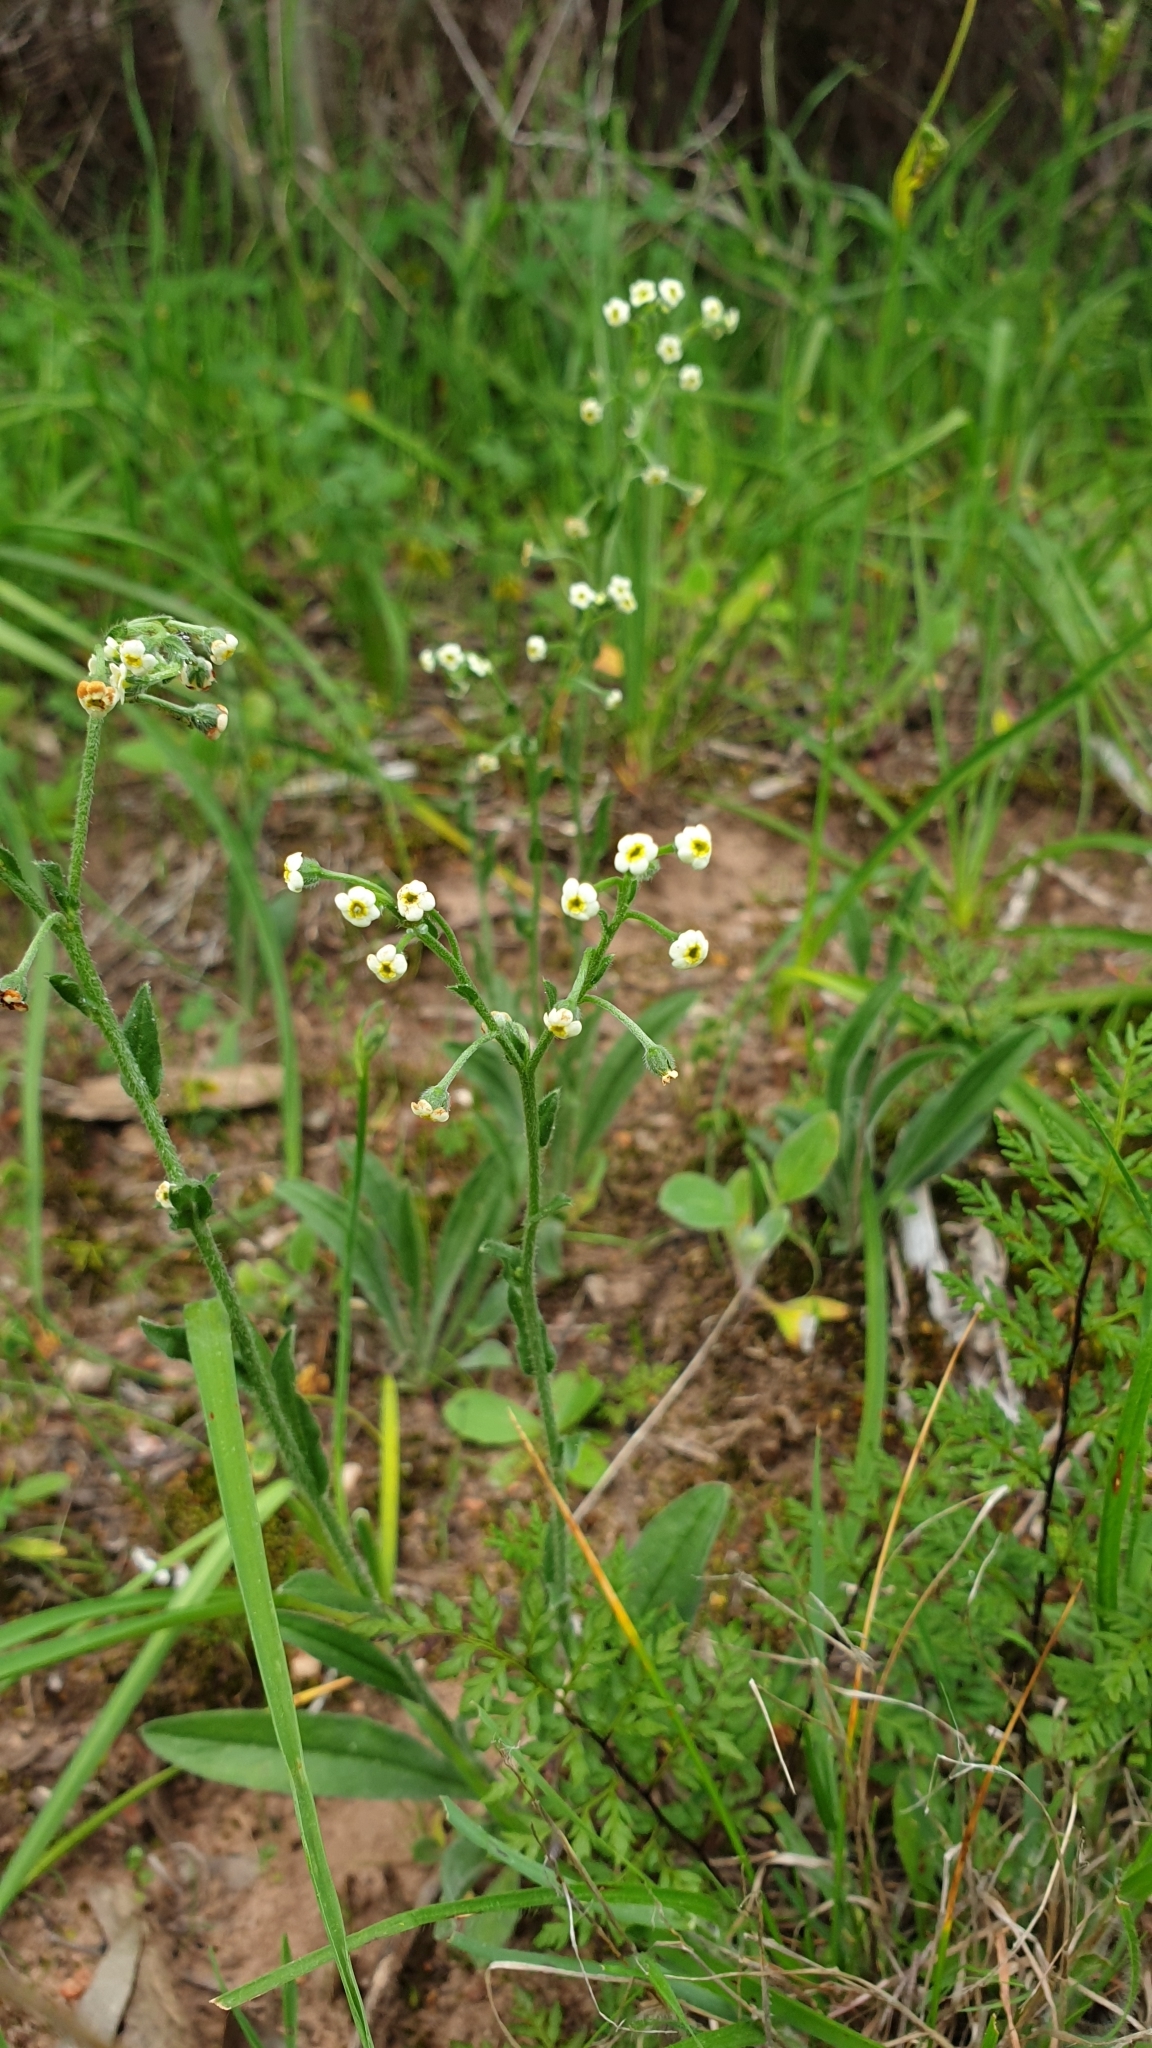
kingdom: Plantae
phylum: Tracheophyta
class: Magnoliopsida
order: Boraginales
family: Boraginaceae
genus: Hackelia
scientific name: Hackelia suaveolens
